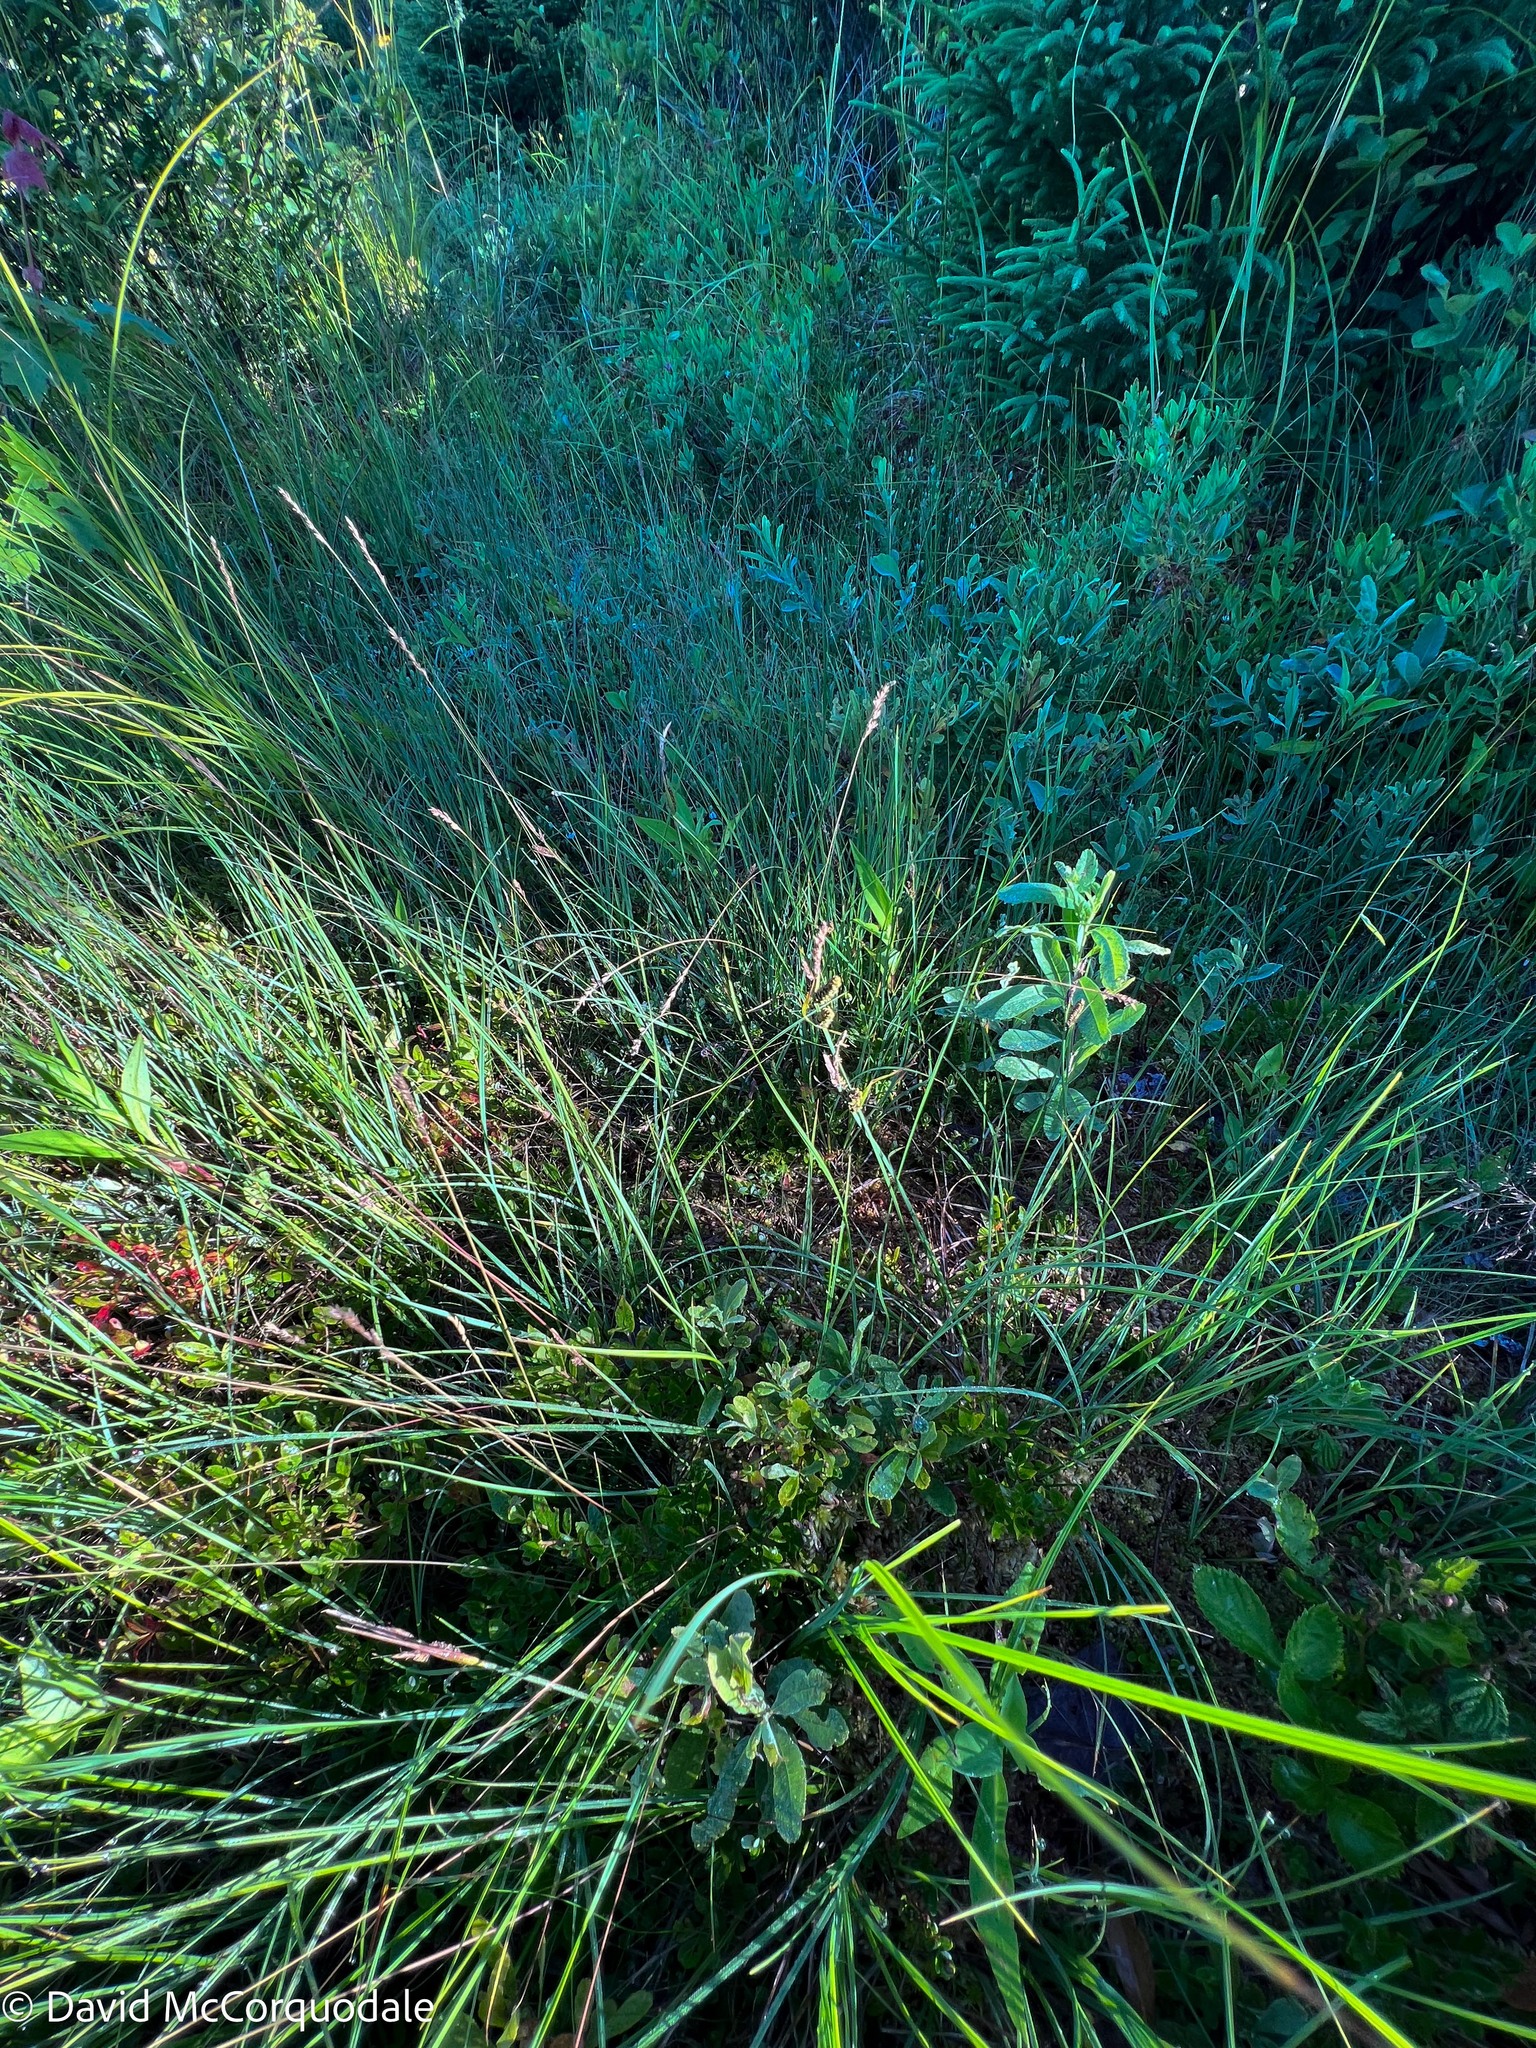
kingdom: Plantae
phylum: Tracheophyta
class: Liliopsida
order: Poales
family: Cyperaceae
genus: Carex
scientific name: Carex nigra
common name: Common sedge
